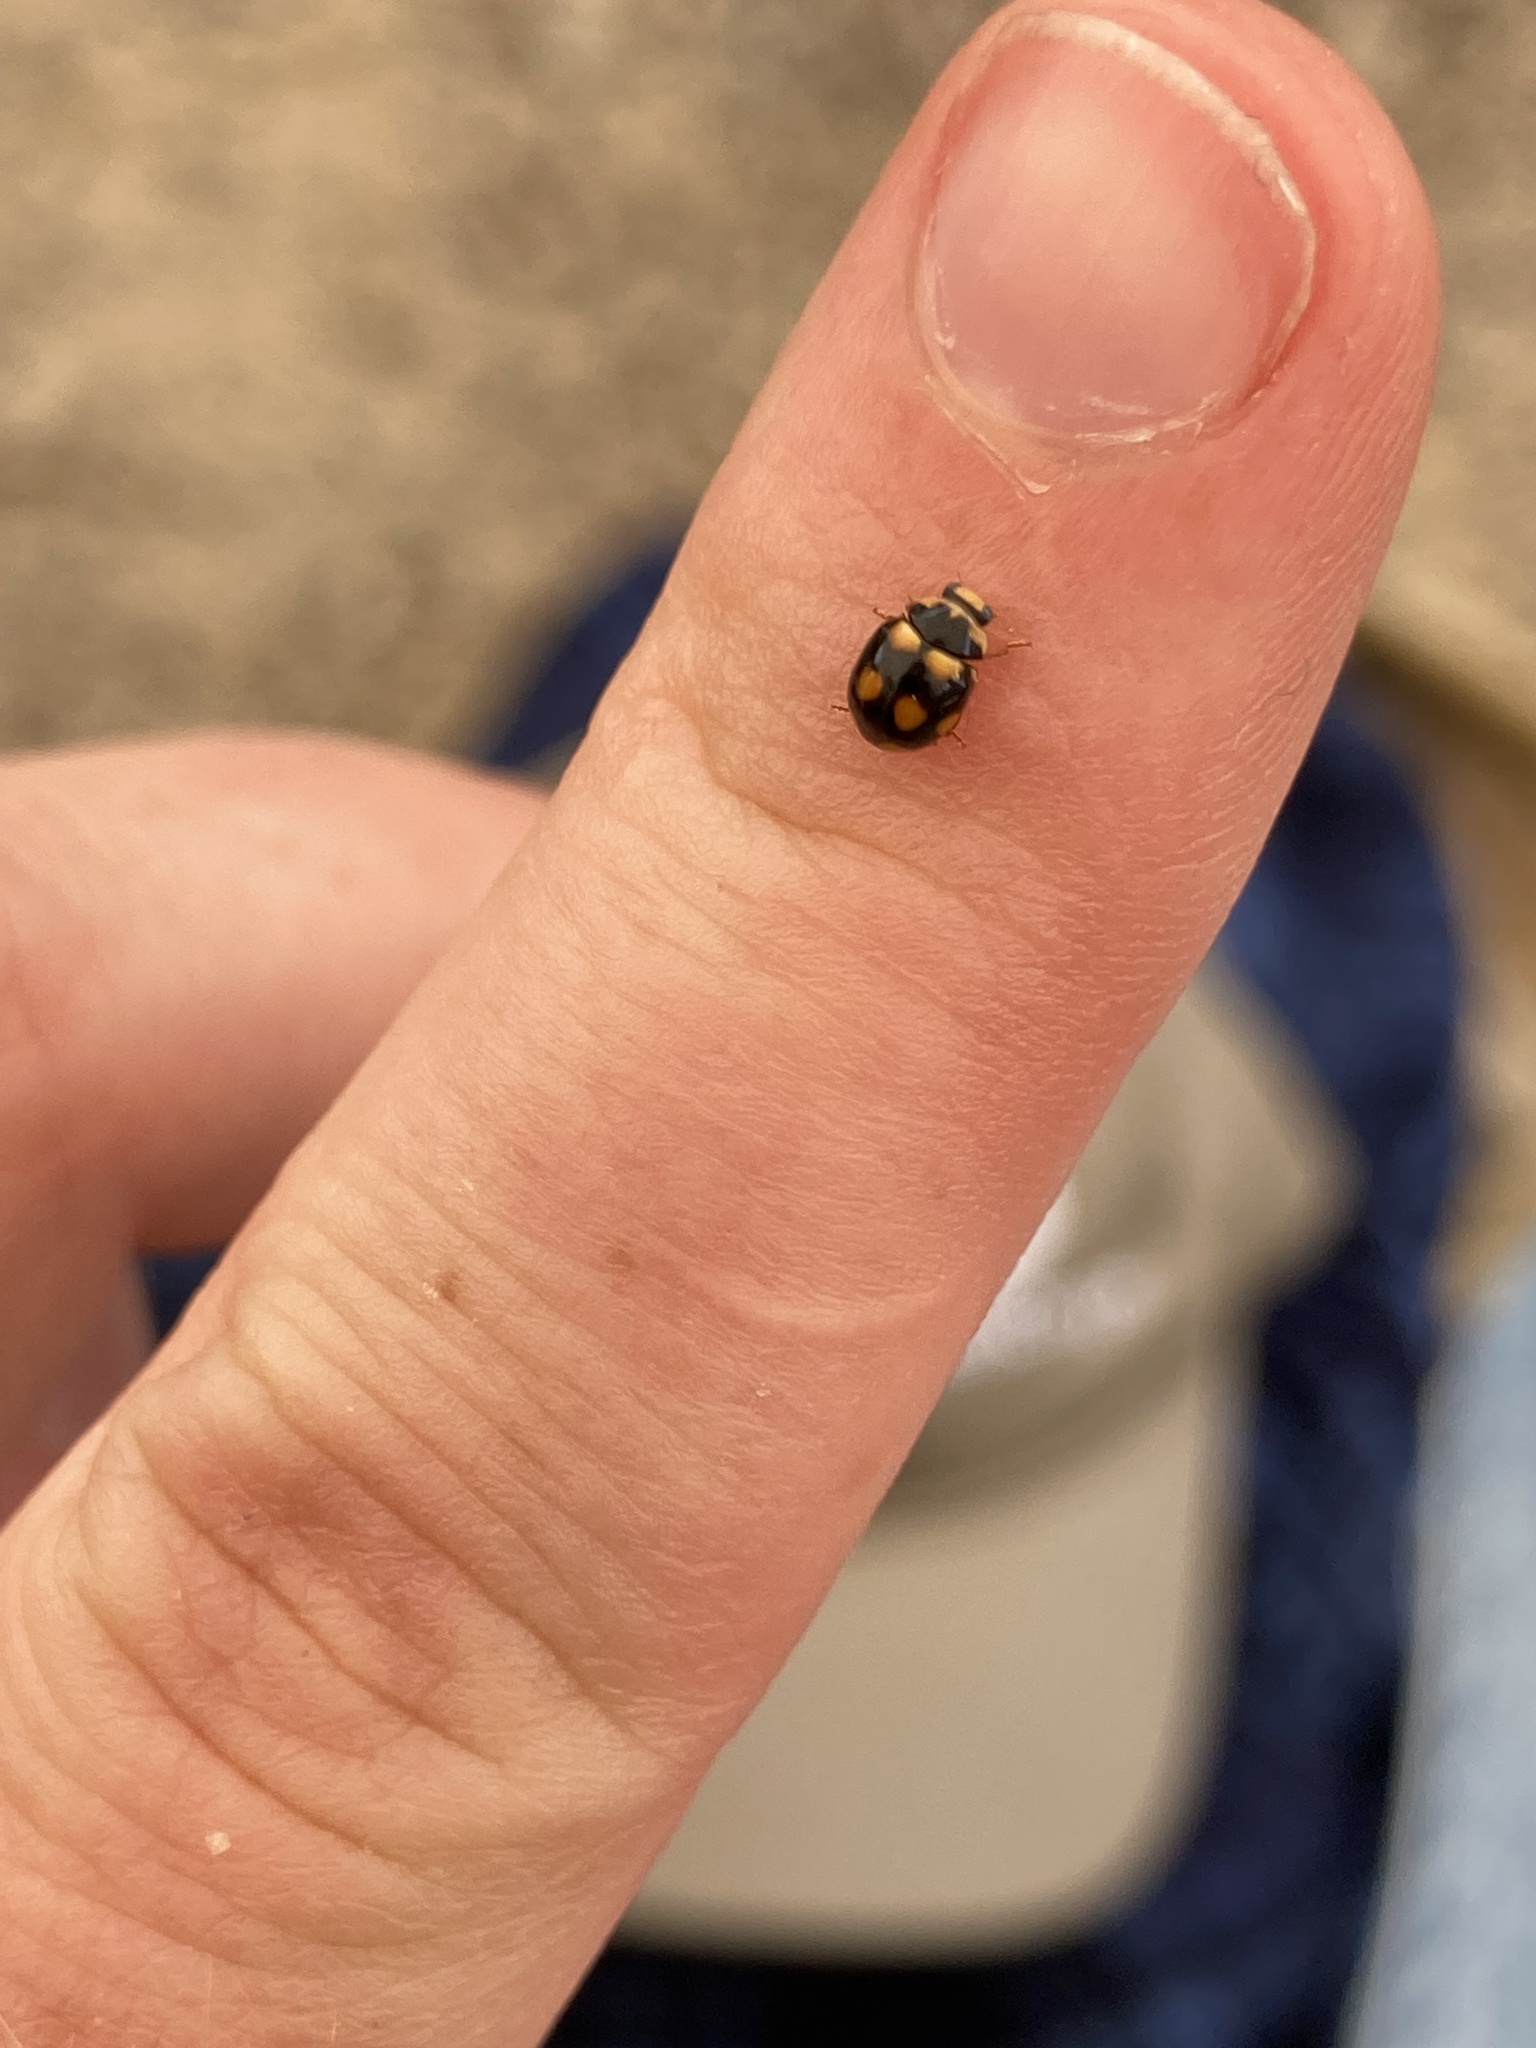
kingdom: Animalia
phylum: Arthropoda
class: Insecta
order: Coleoptera
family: Coccinellidae
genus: Brachiacantha
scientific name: Brachiacantha ursina
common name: Ursine spurleg lady beetle
